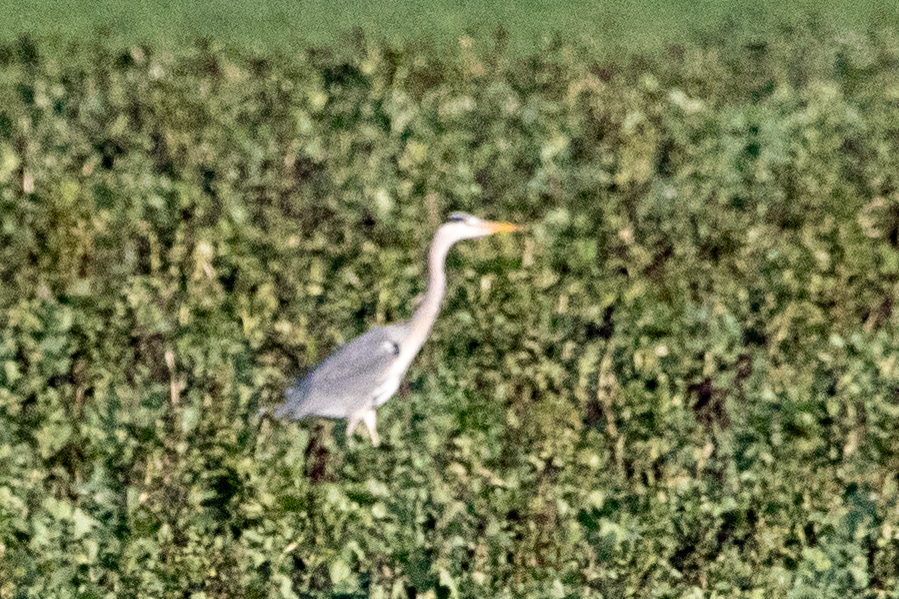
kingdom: Animalia
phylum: Chordata
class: Aves
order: Pelecaniformes
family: Ardeidae
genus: Ardea
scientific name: Ardea cinerea
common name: Grey heron
